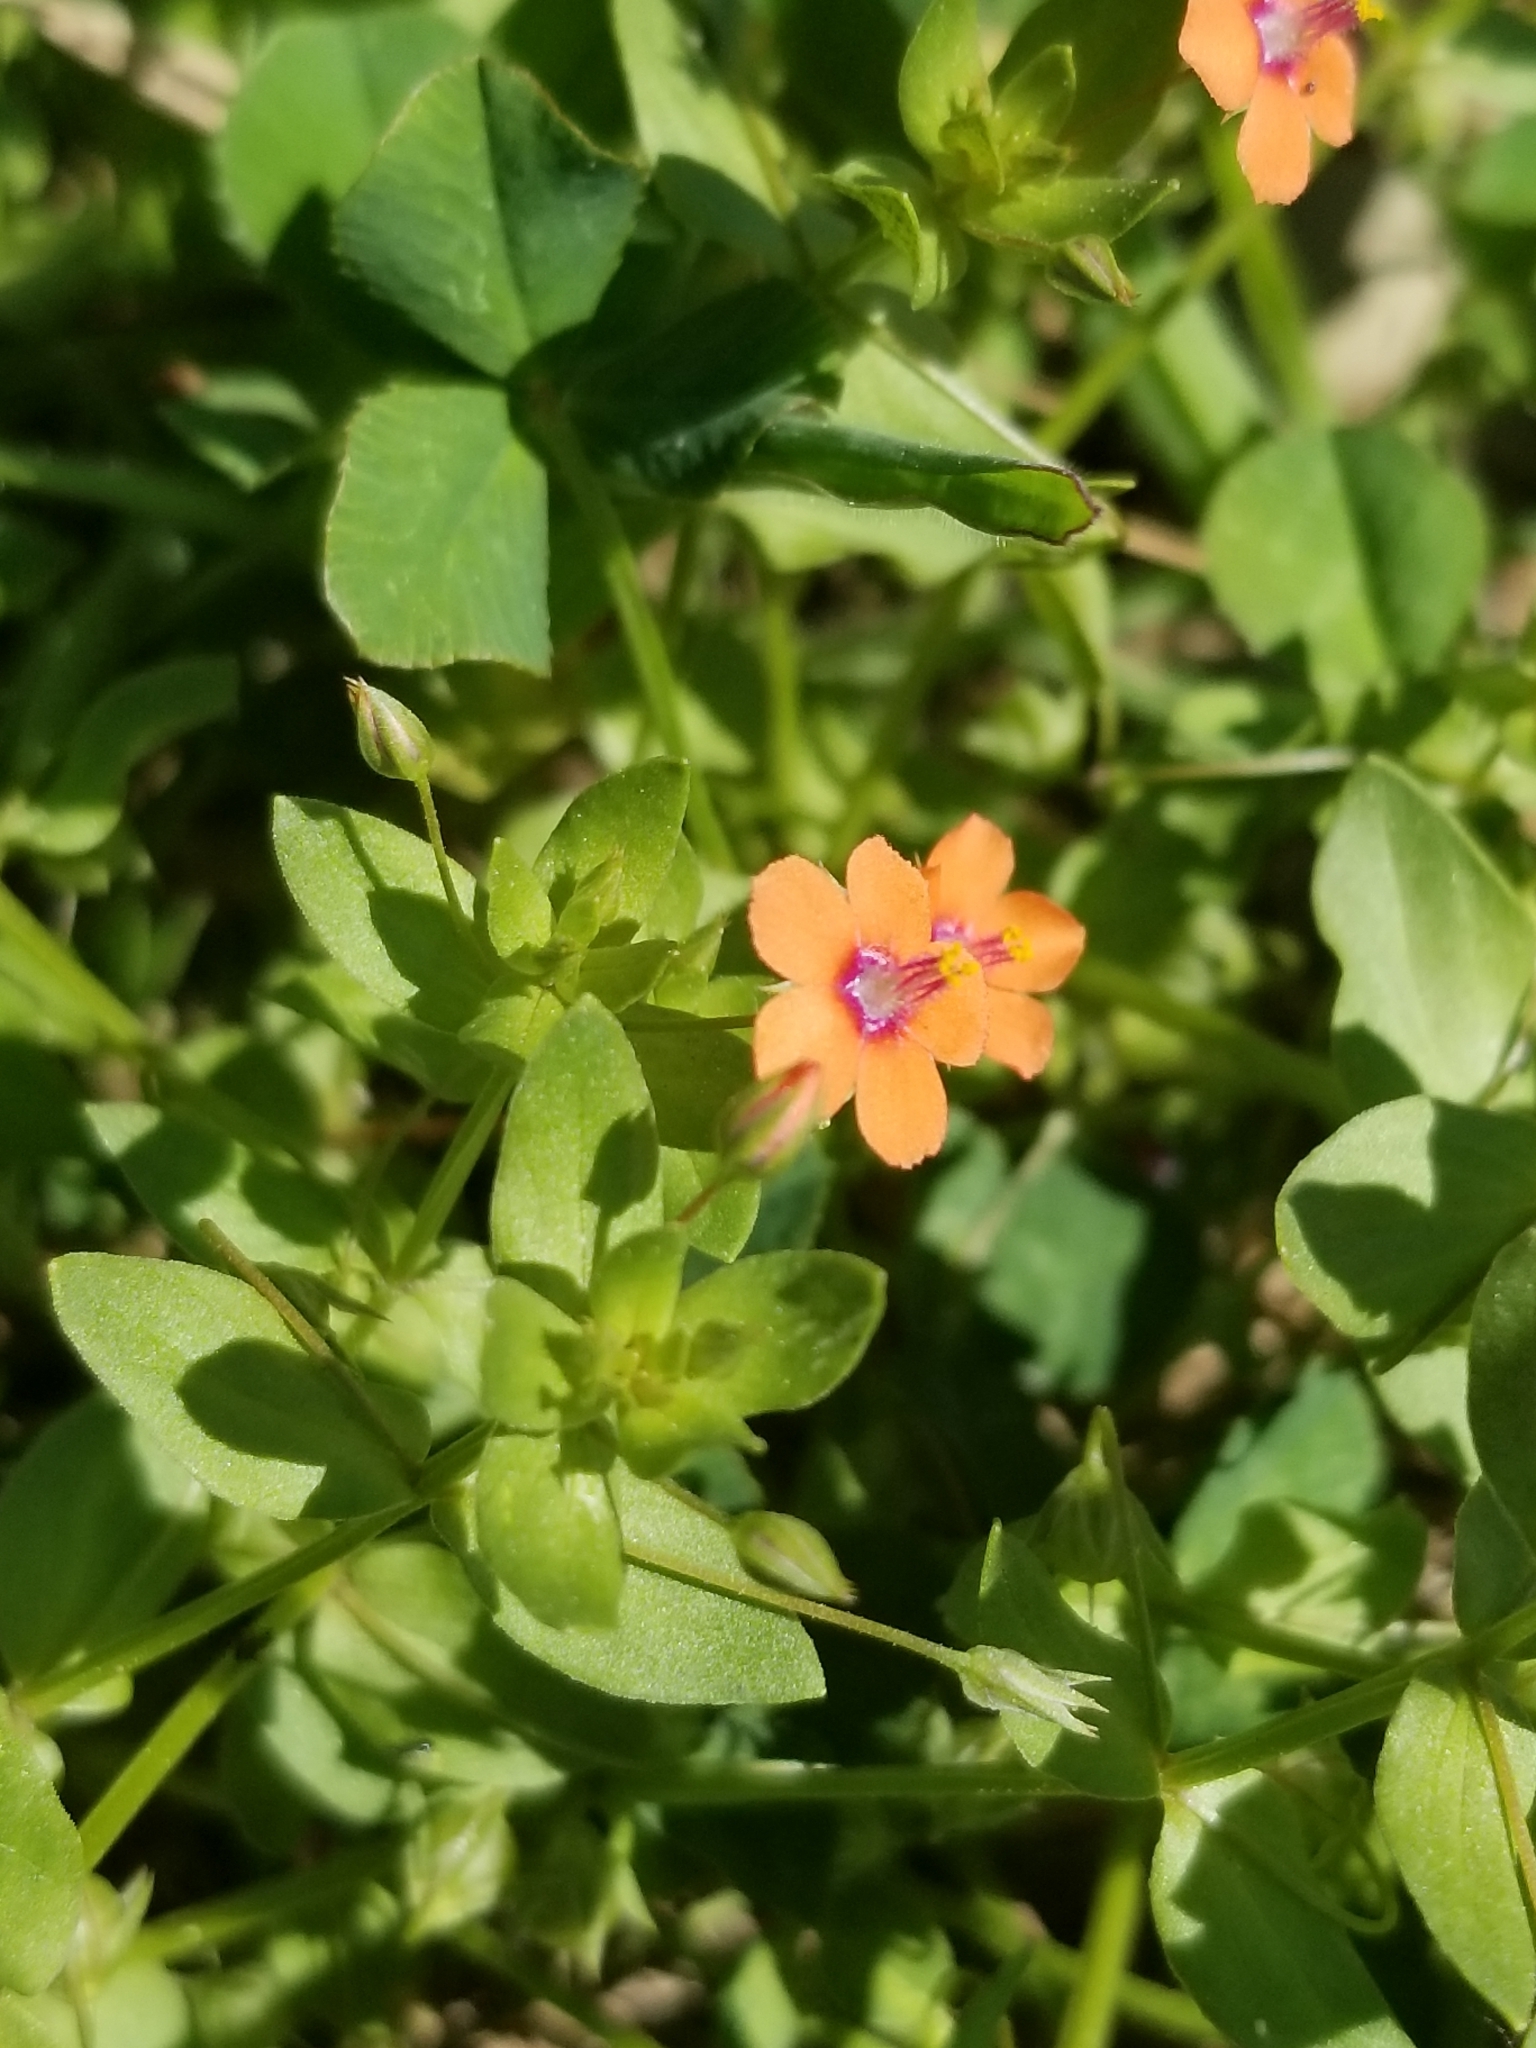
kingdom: Plantae
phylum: Tracheophyta
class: Magnoliopsida
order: Ericales
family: Primulaceae
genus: Lysimachia
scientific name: Lysimachia arvensis
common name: Scarlet pimpernel
